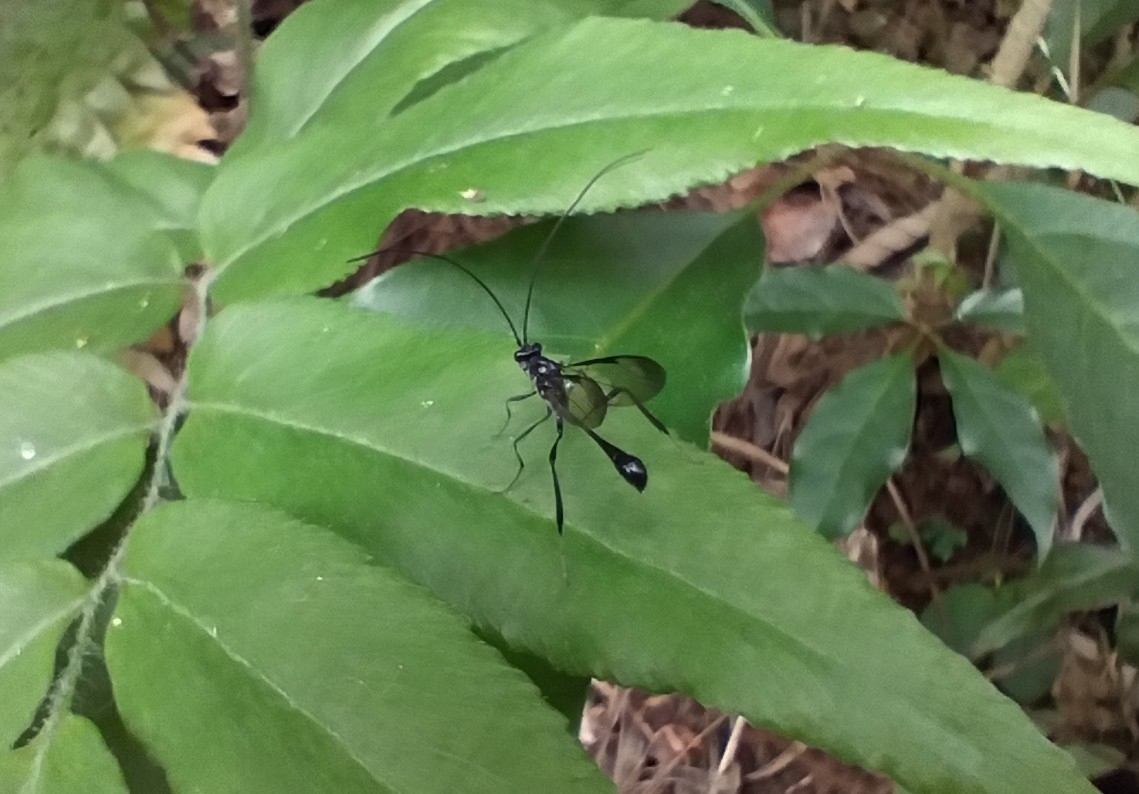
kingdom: Animalia
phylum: Arthropoda
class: Insecta
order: Hymenoptera
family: Pelecinidae
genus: Pelecinus
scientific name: Pelecinus polyturator
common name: American pelecinid wasp
